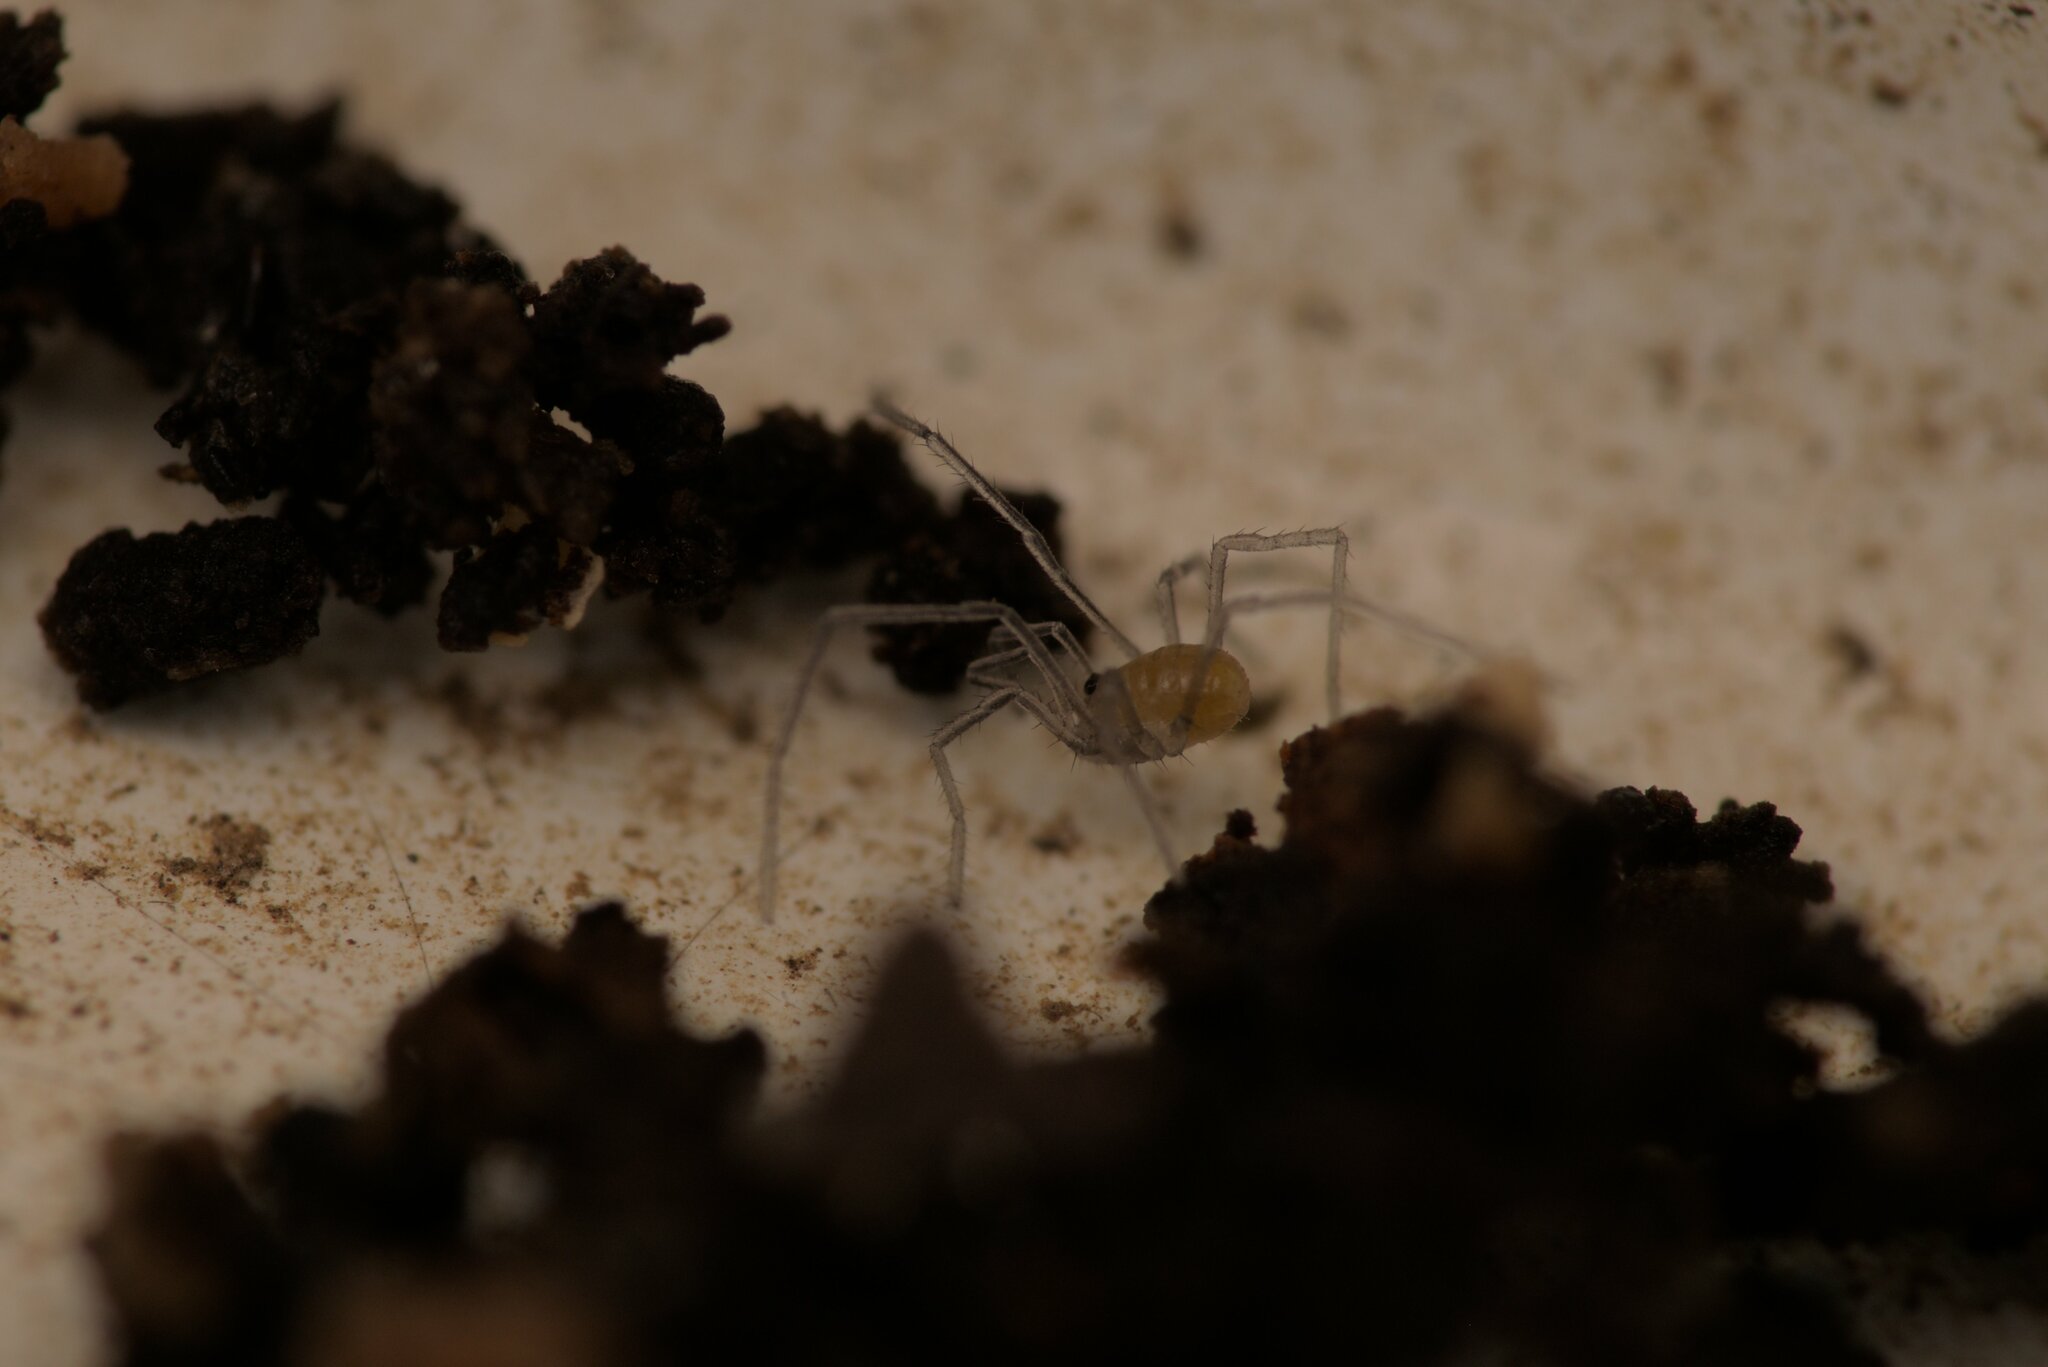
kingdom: Animalia
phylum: Arthropoda
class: Arachnida
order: Opiliones
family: Nemastomatidae
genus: Mitostoma
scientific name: Mitostoma chrysomelas
